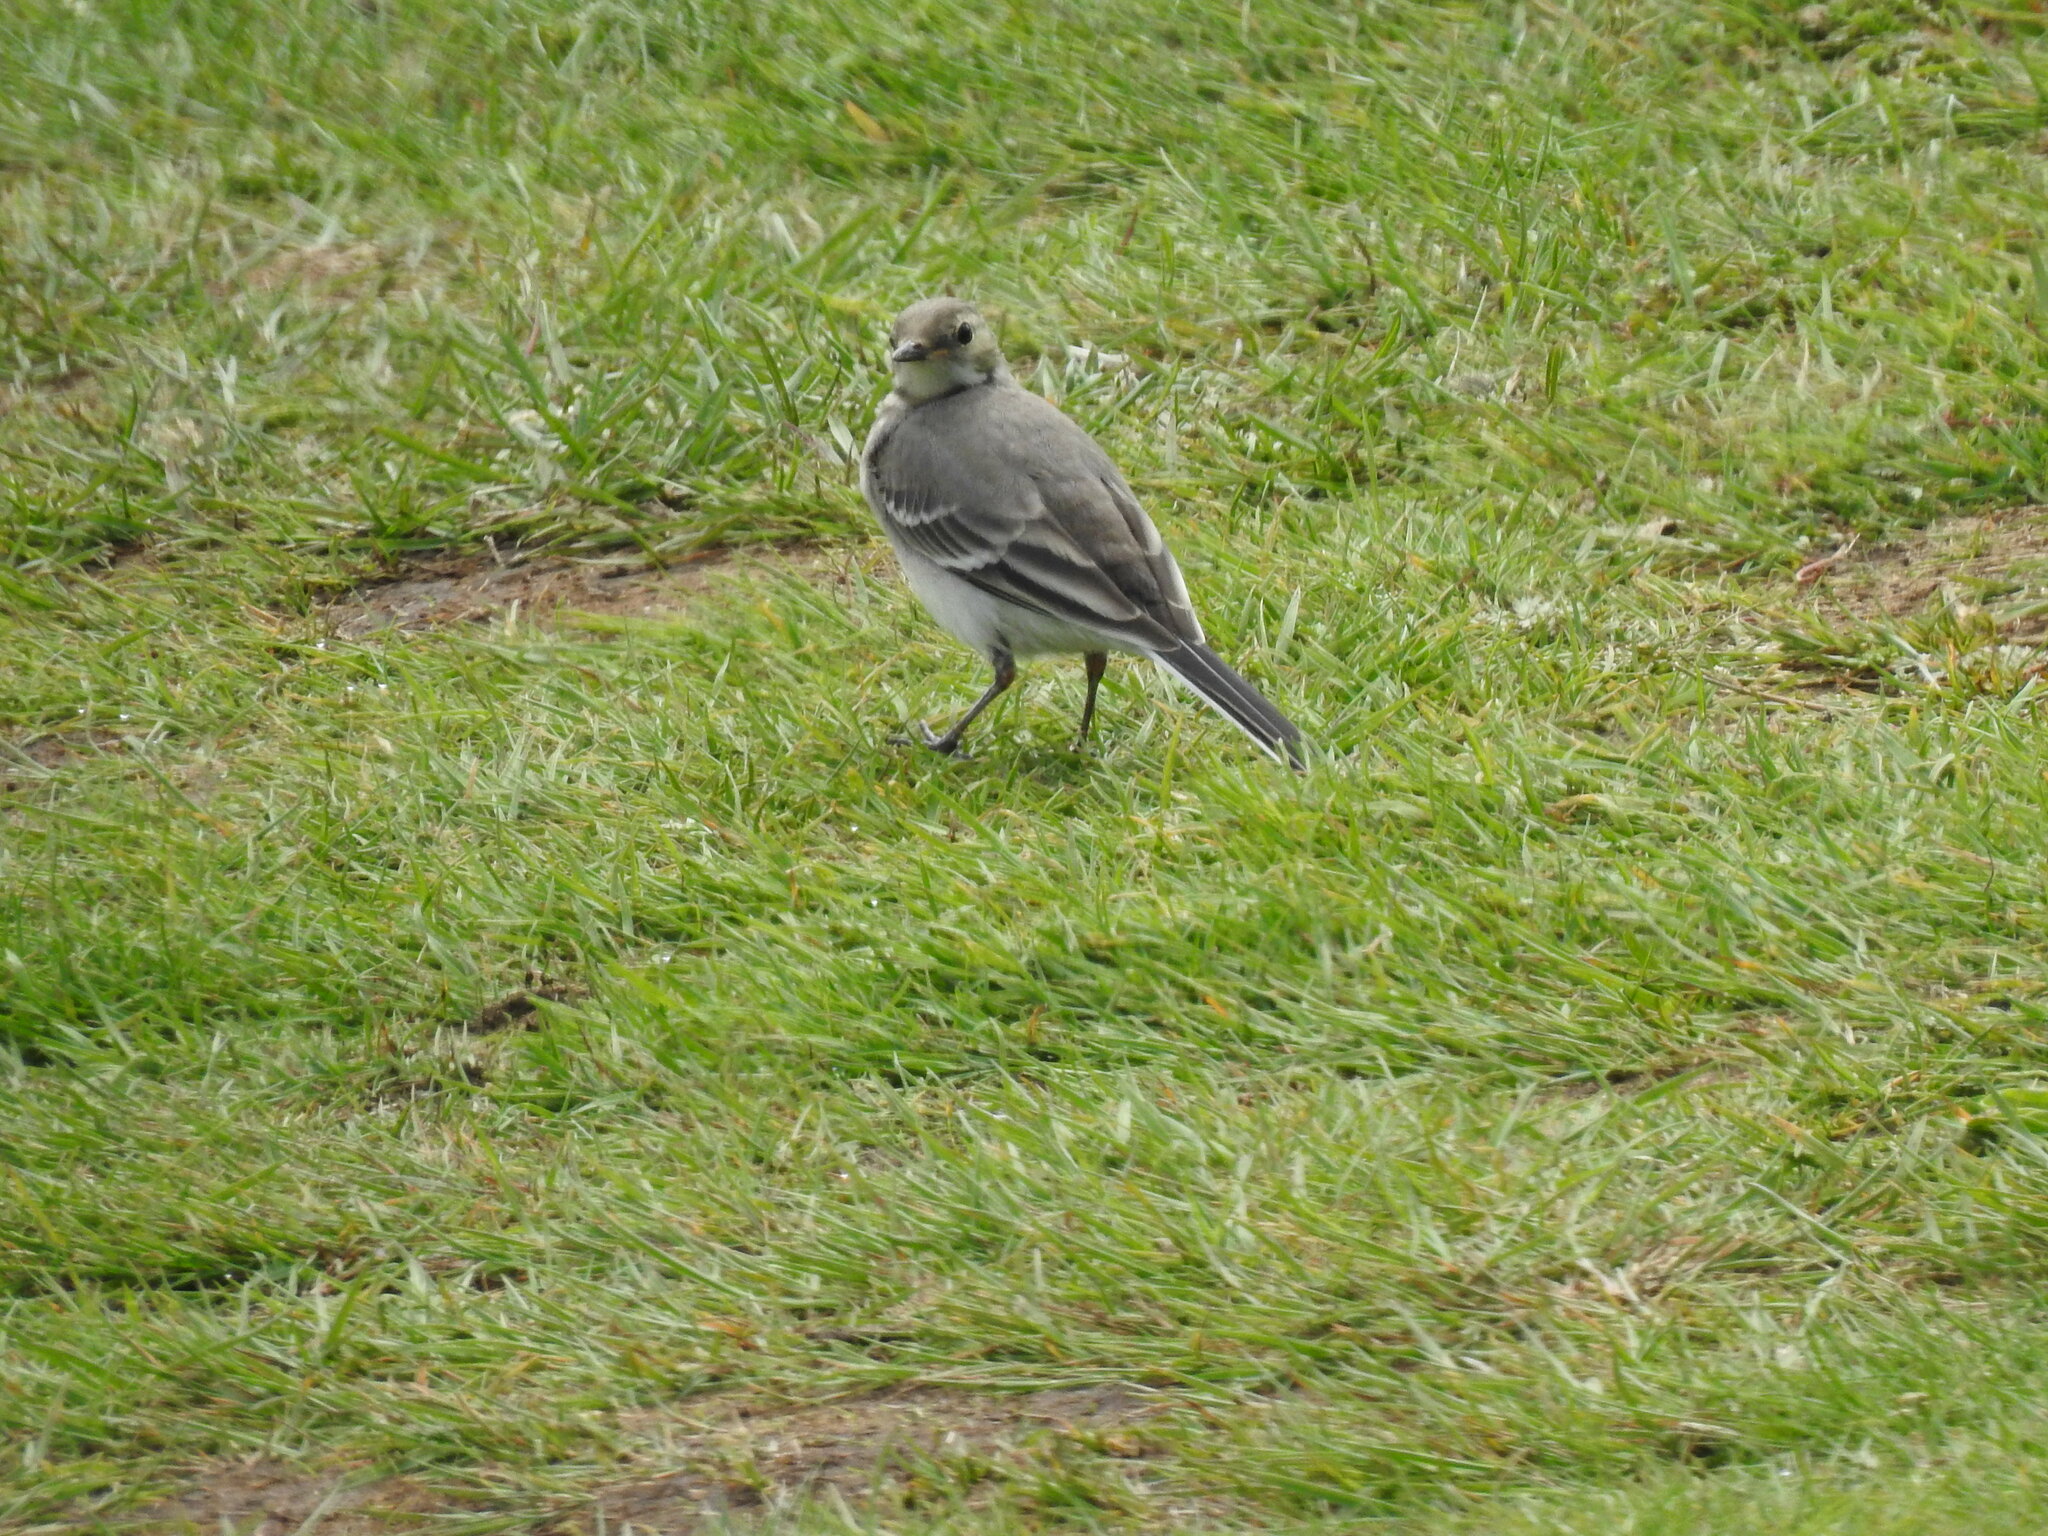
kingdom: Animalia
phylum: Chordata
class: Aves
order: Passeriformes
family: Motacillidae
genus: Motacilla
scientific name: Motacilla alba
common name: White wagtail
